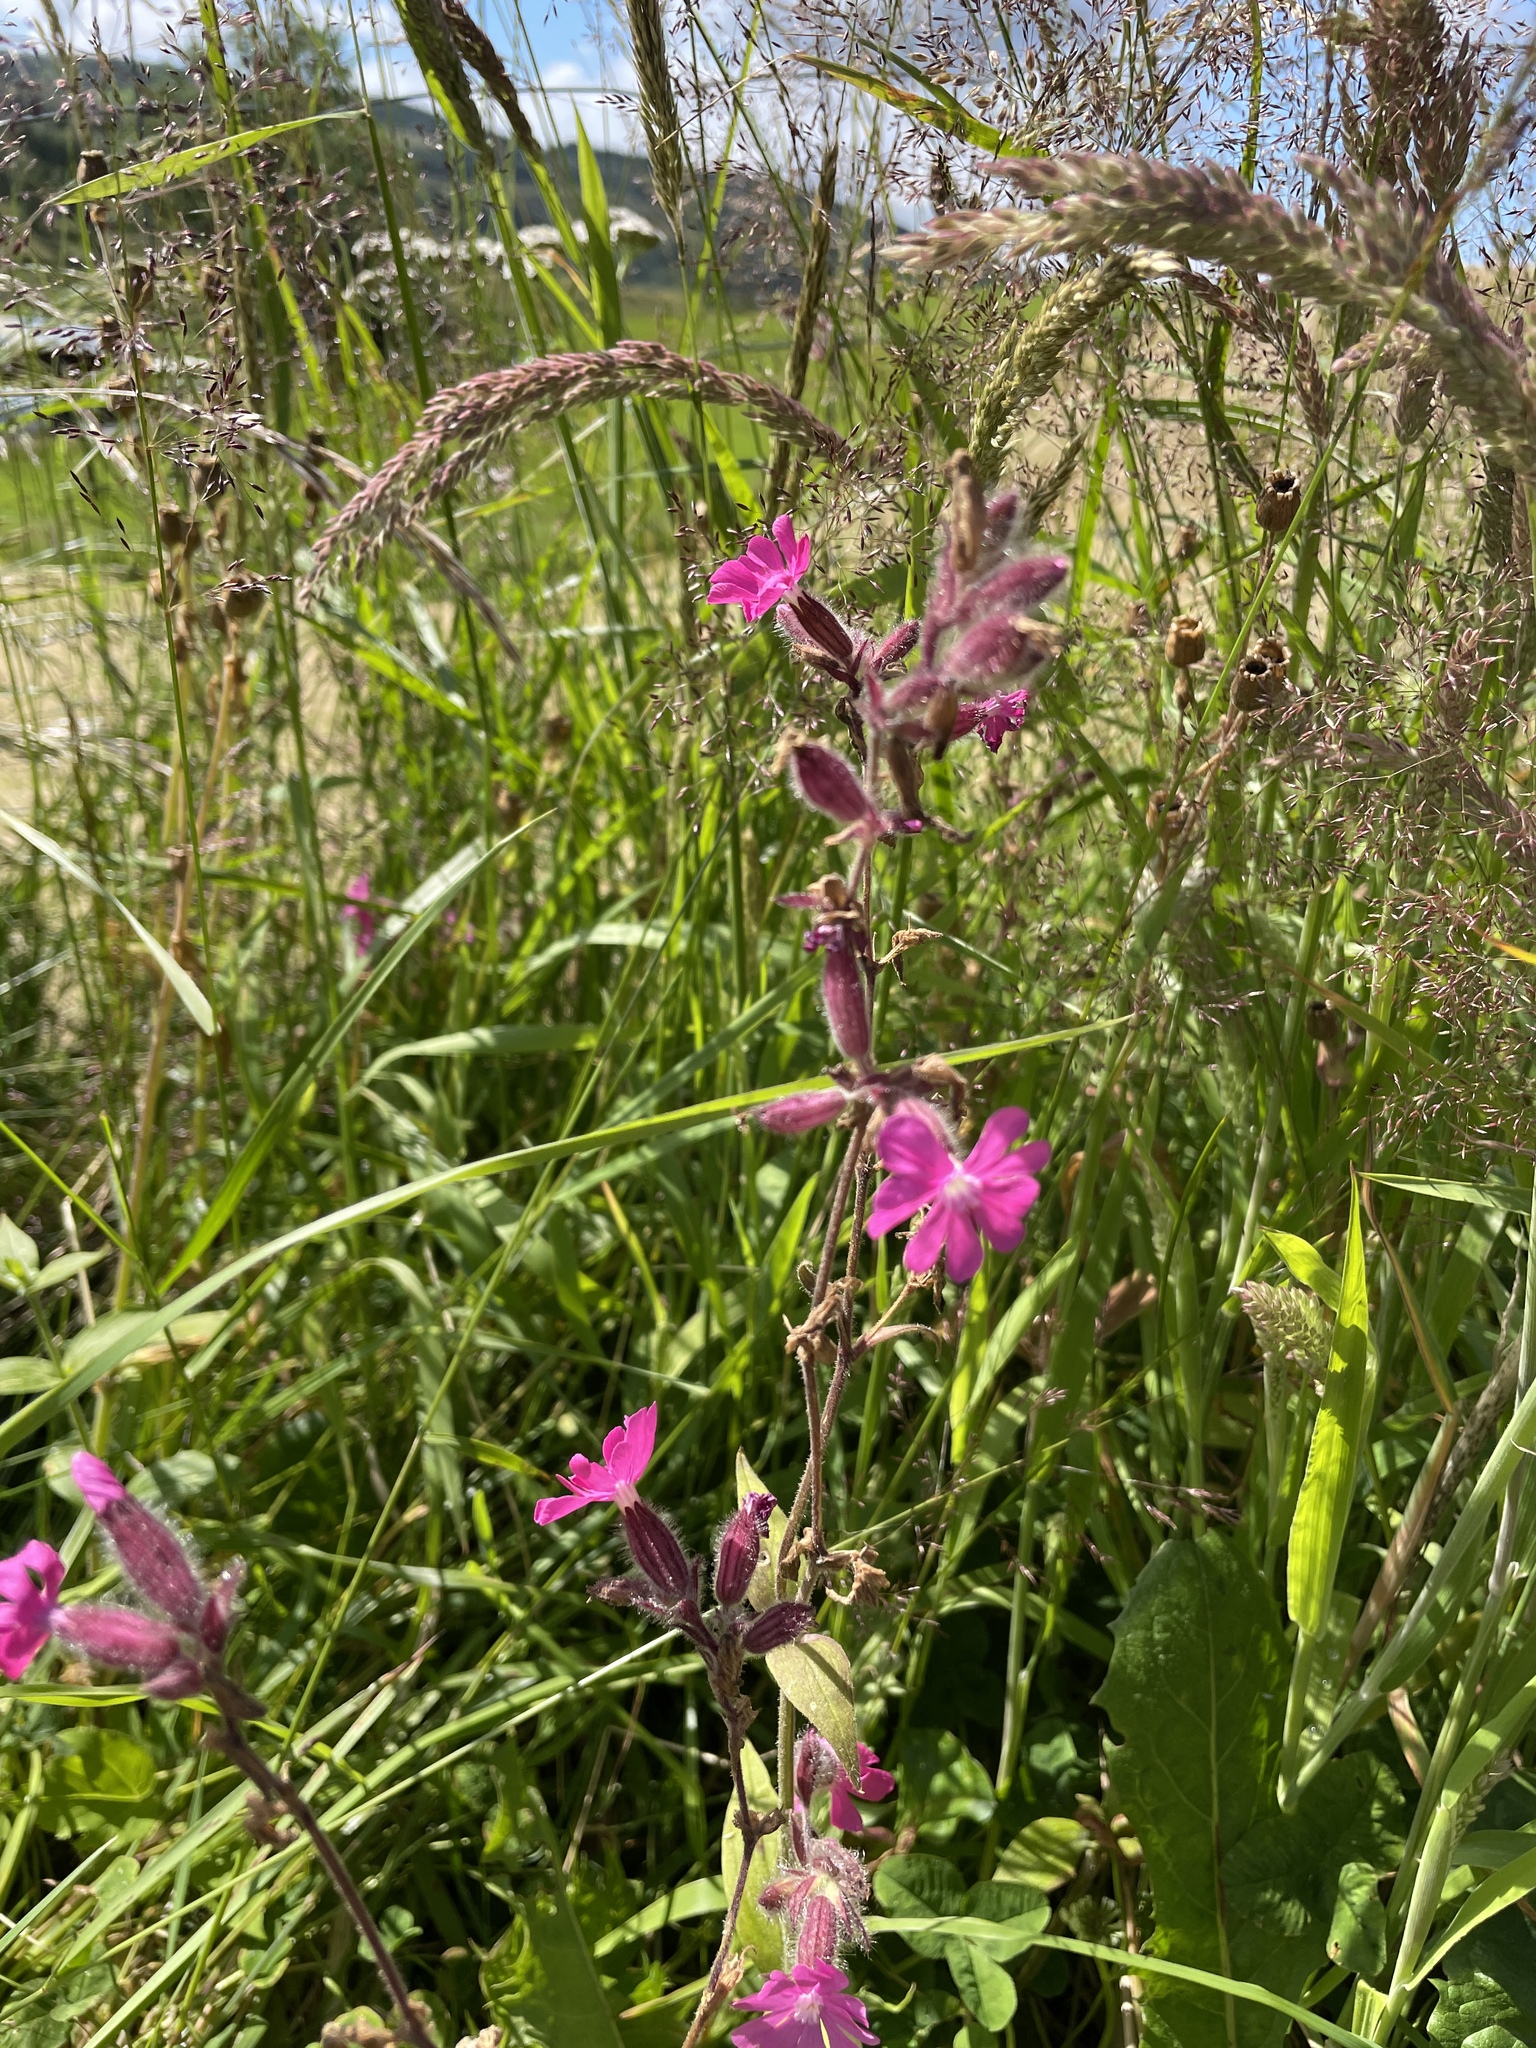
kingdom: Plantae
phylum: Tracheophyta
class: Magnoliopsida
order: Caryophyllales
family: Caryophyllaceae
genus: Silene
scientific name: Silene dioica
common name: Red campion
